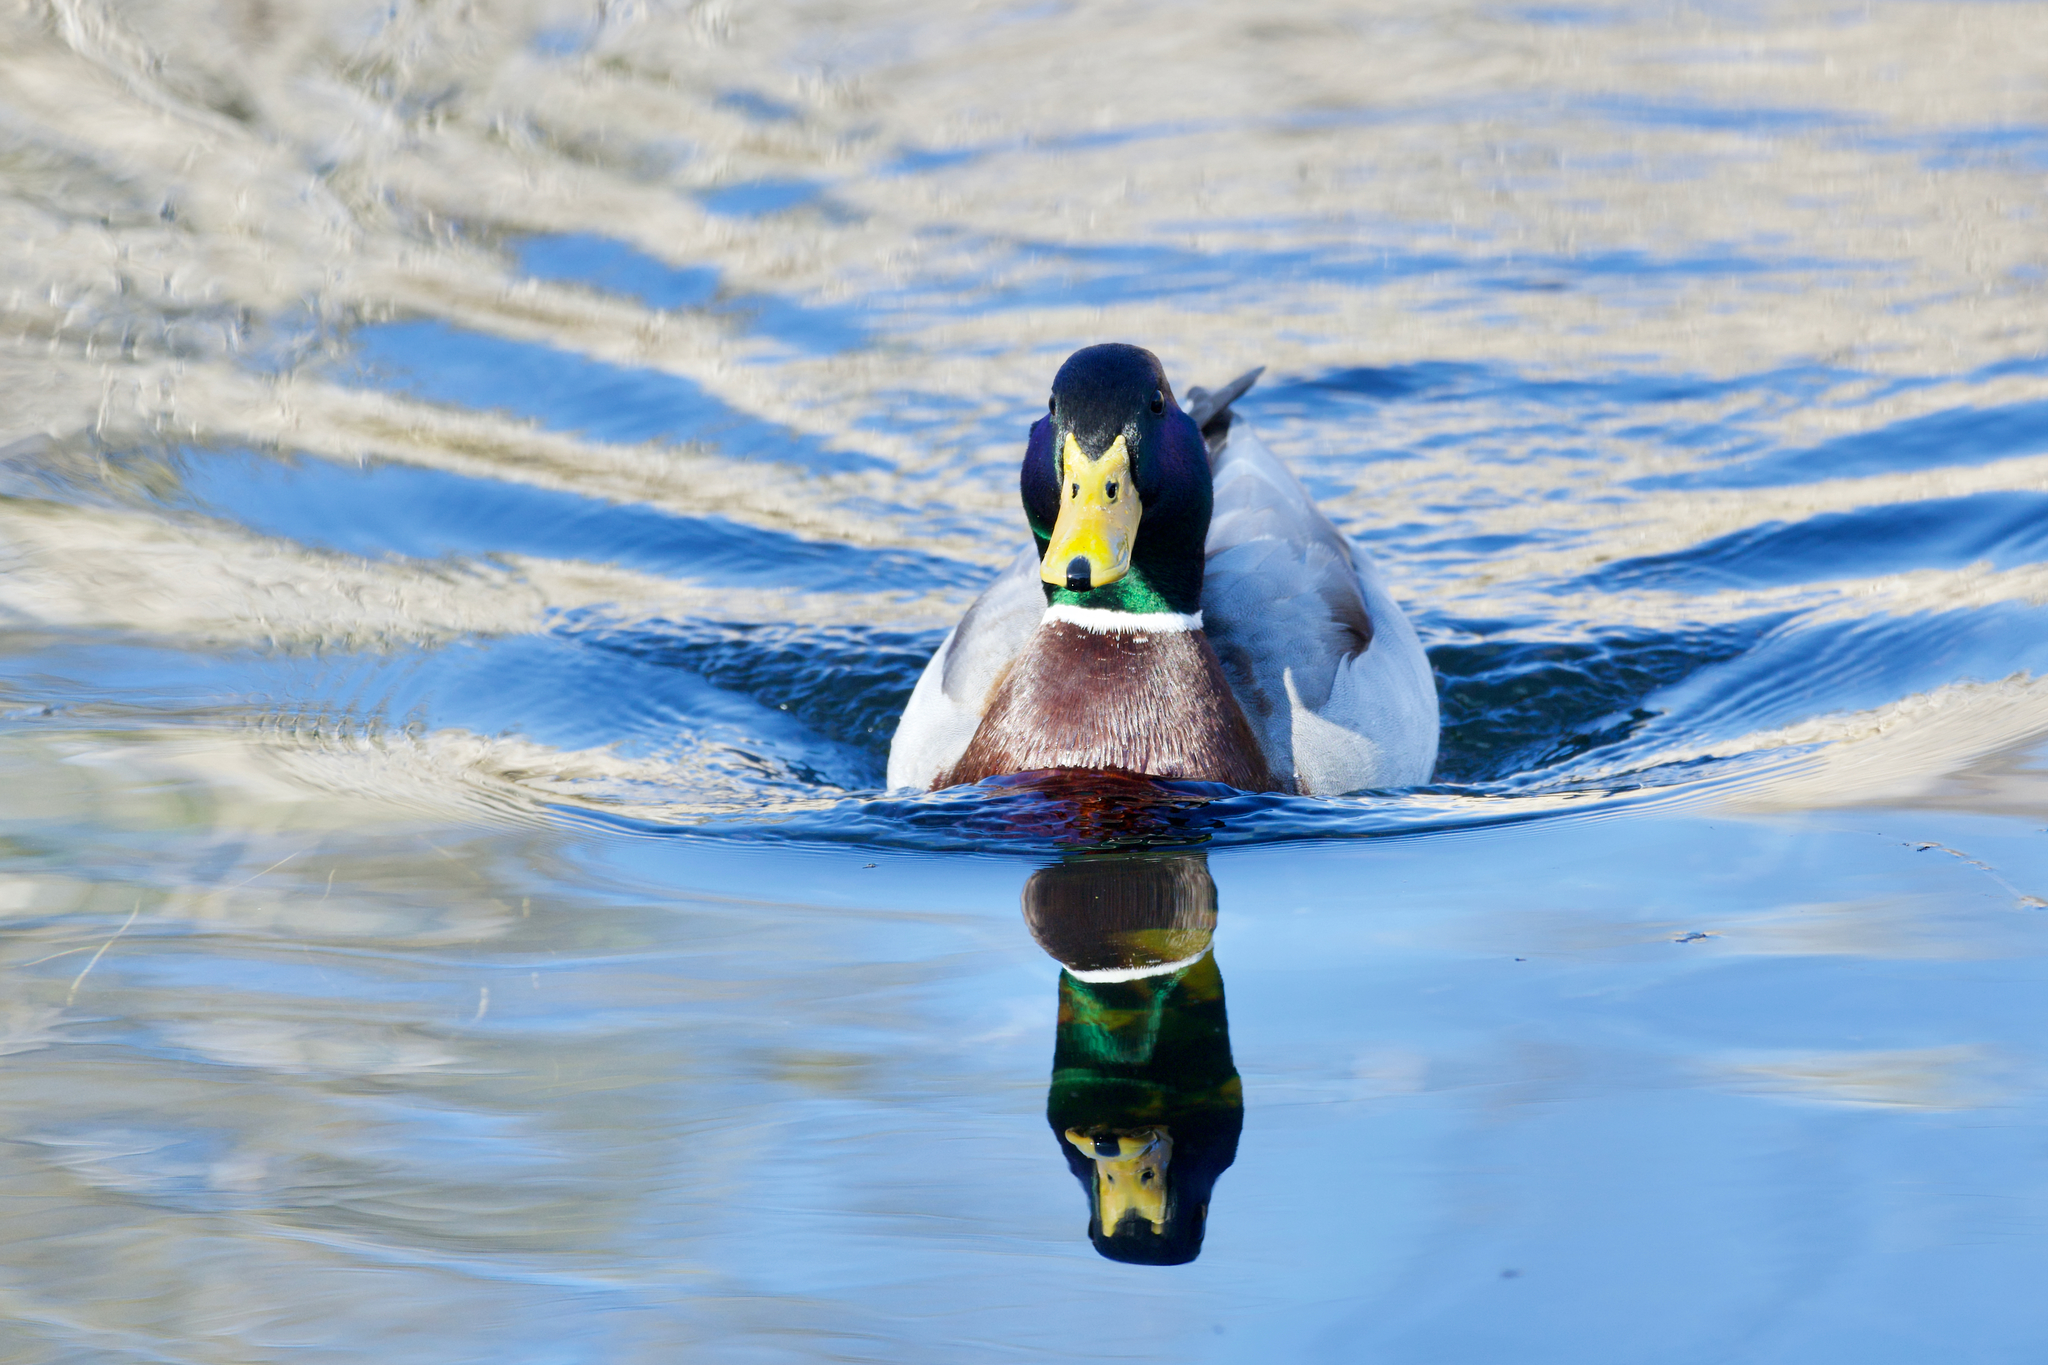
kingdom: Animalia
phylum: Chordata
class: Aves
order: Anseriformes
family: Anatidae
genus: Anas
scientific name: Anas platyrhynchos
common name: Mallard
